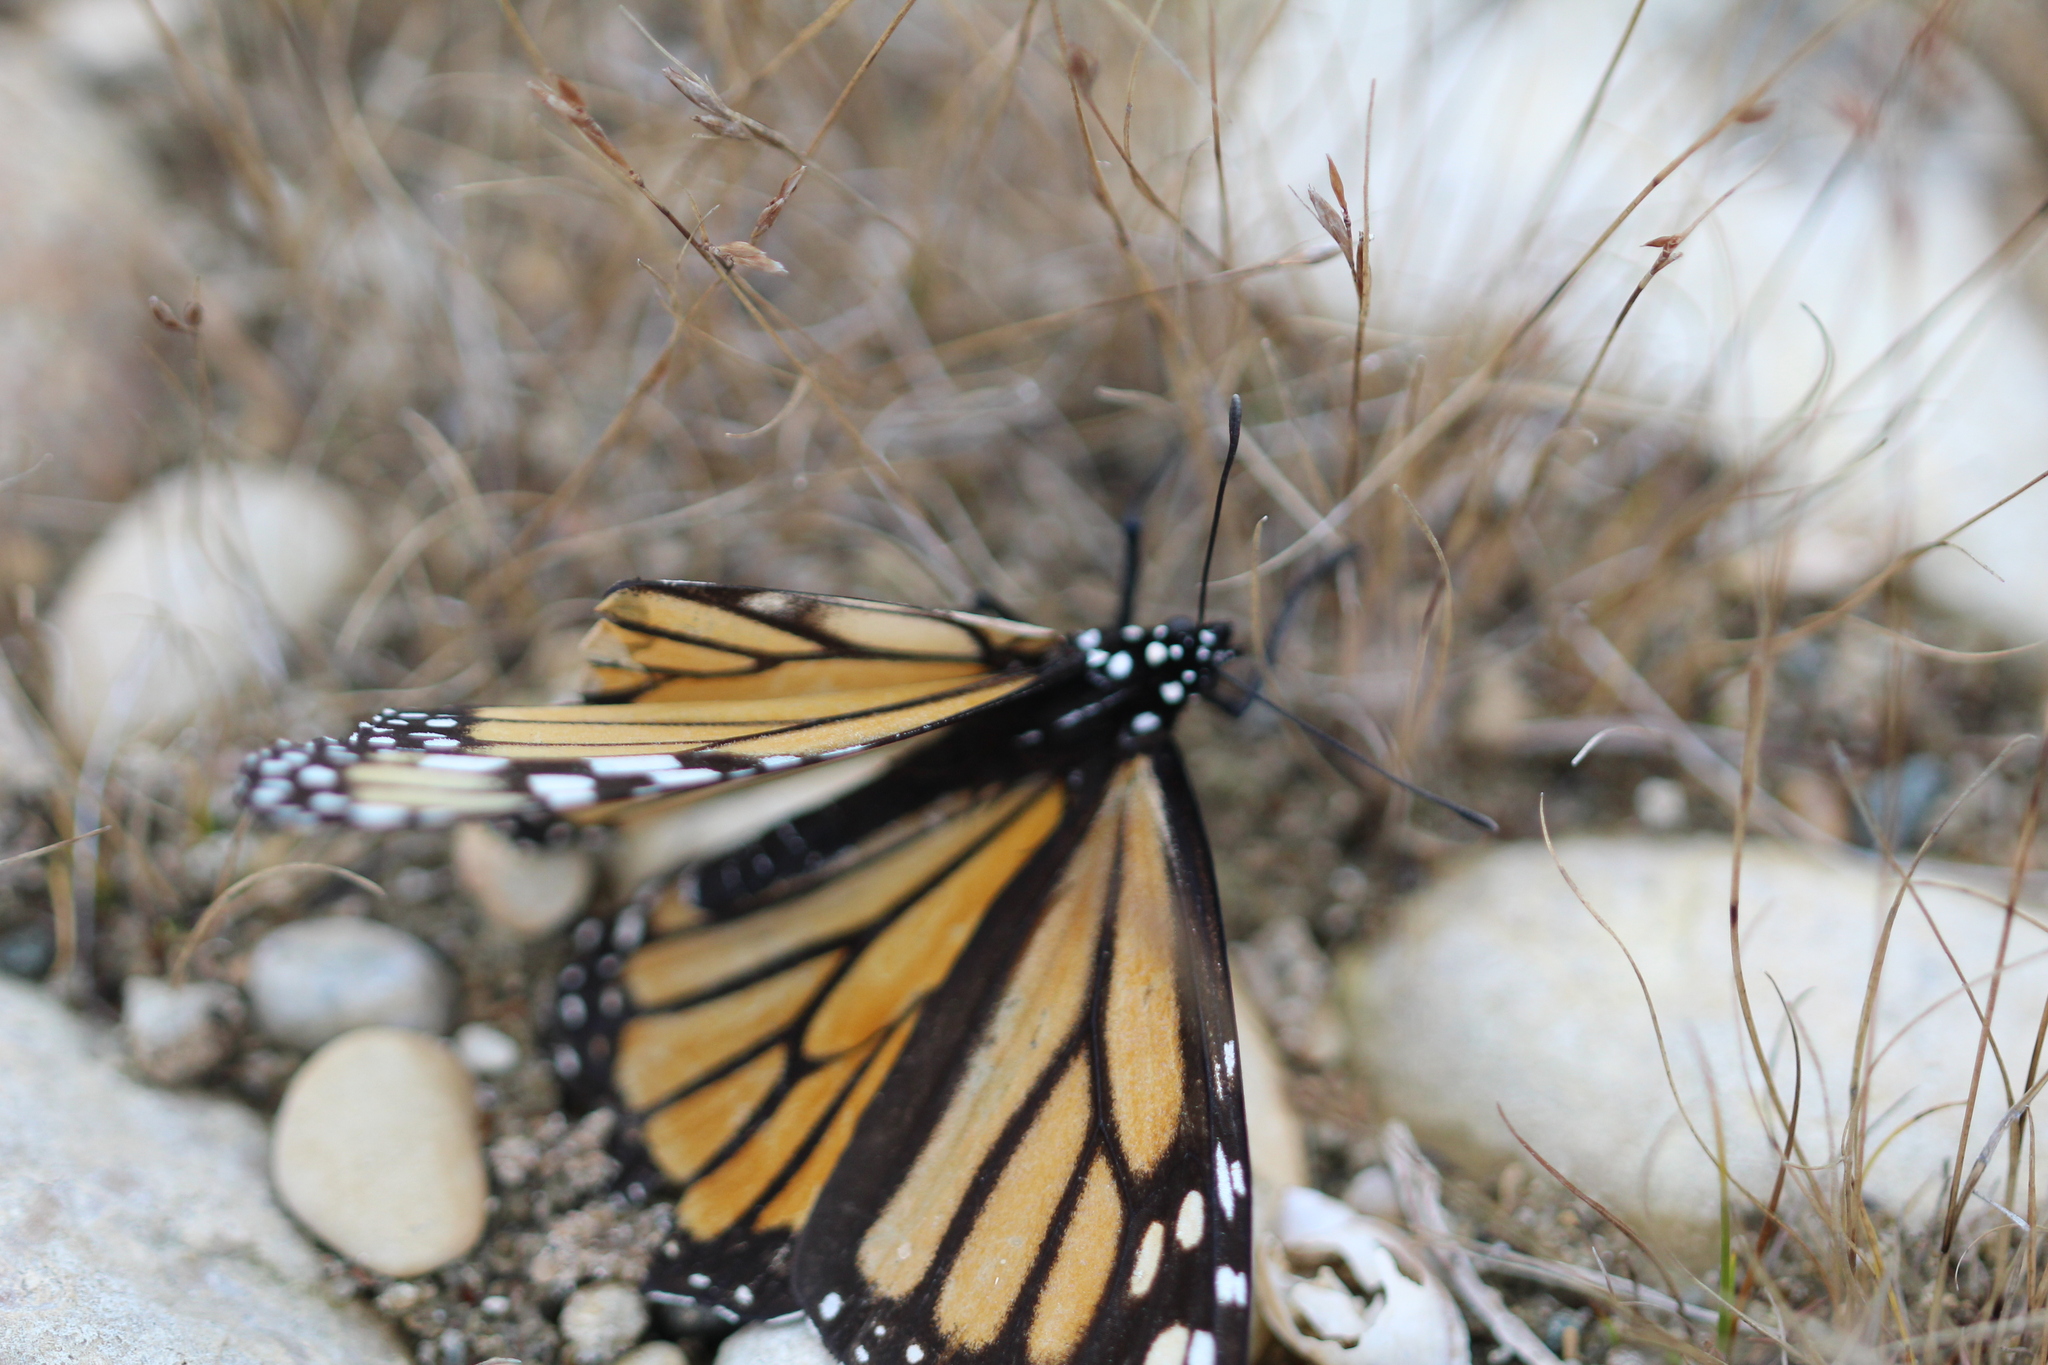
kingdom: Animalia
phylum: Arthropoda
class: Insecta
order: Lepidoptera
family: Nymphalidae
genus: Danaus
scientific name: Danaus plexippus
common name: Monarch
